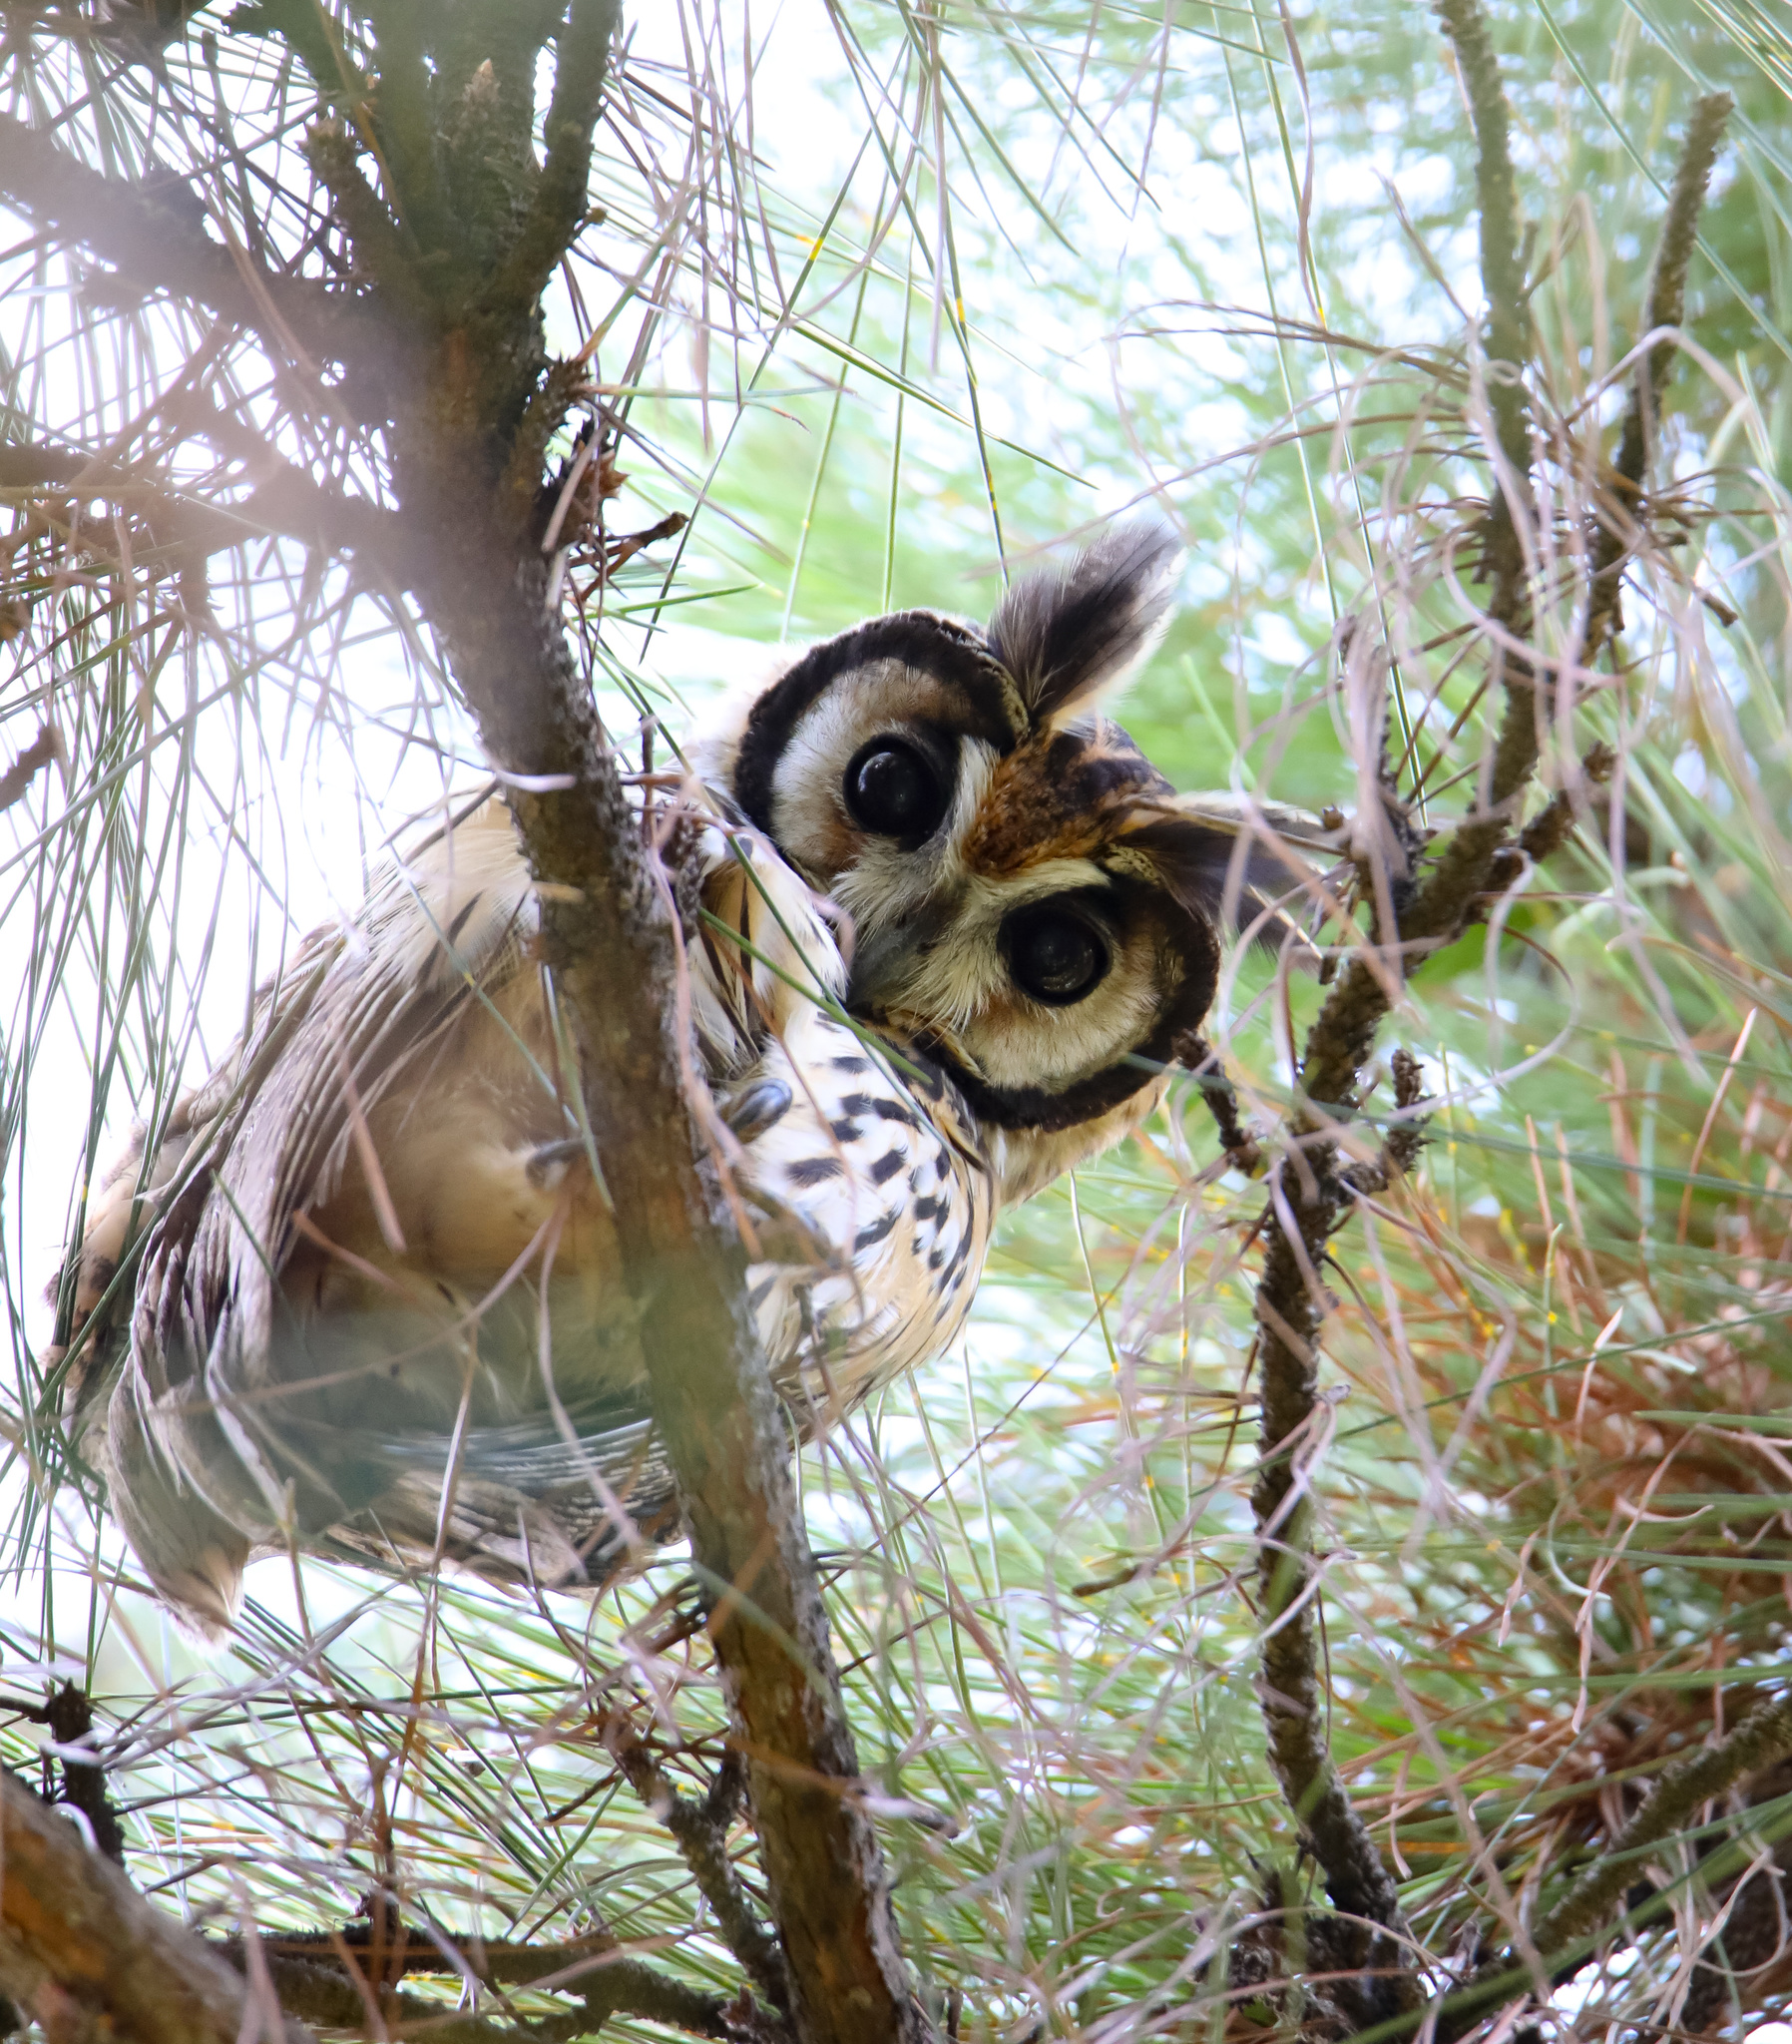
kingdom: Animalia
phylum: Chordata
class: Aves
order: Strigiformes
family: Strigidae
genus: Pseudoscops
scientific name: Pseudoscops clamator
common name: Striped owl
